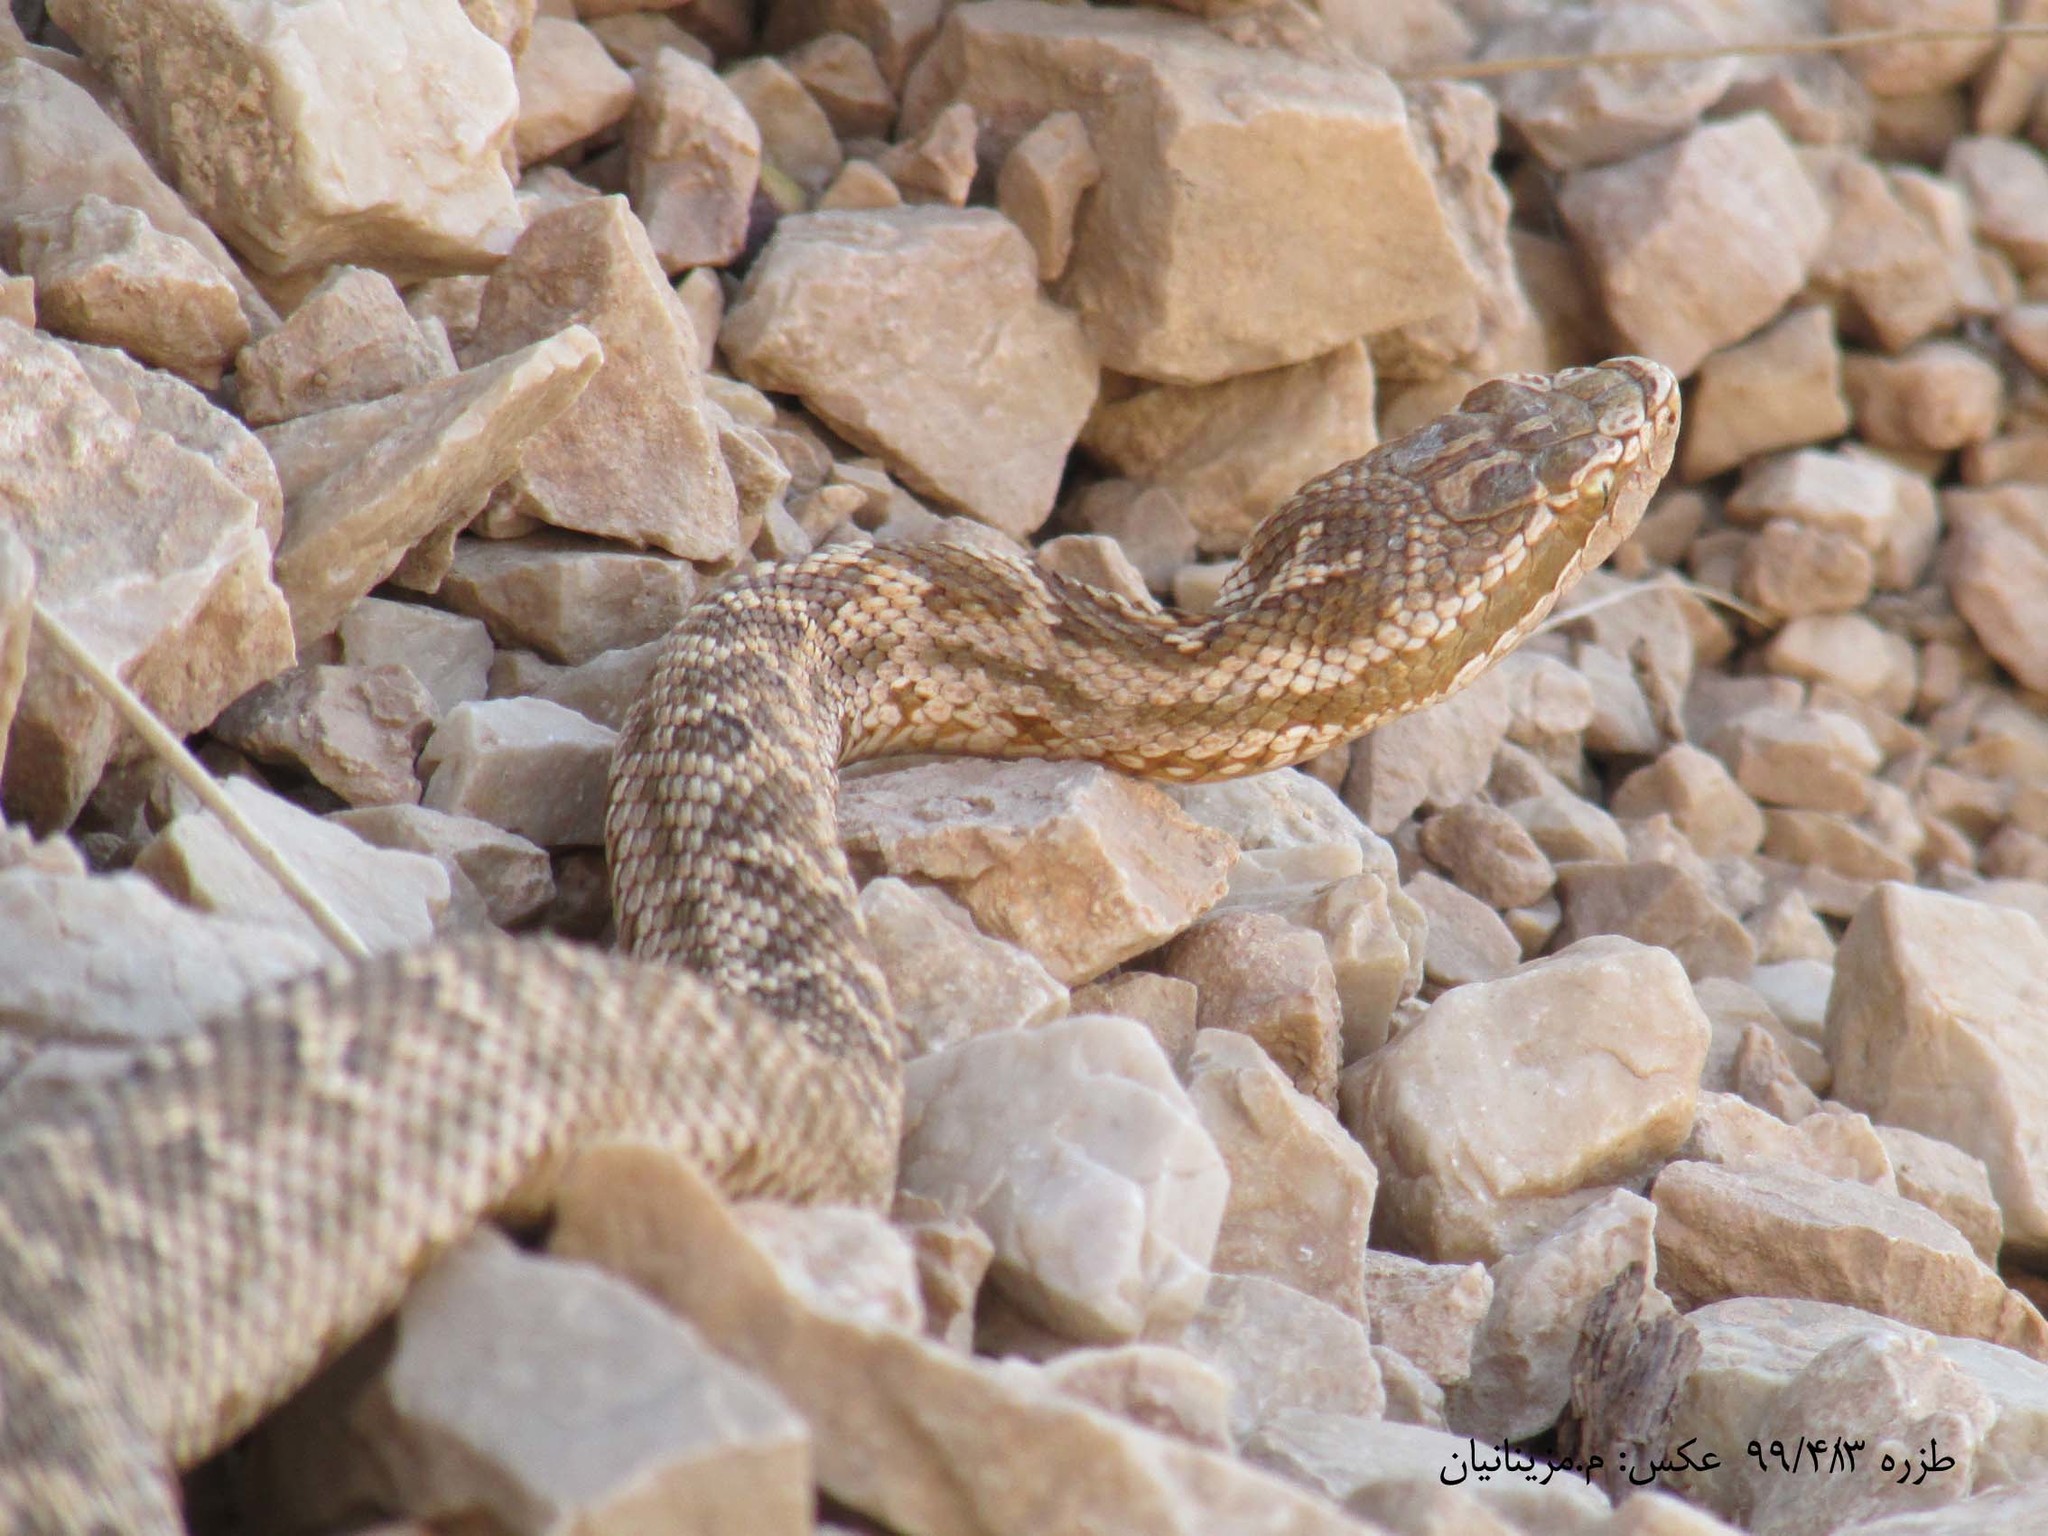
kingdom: Animalia
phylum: Chordata
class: Squamata
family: Viperidae
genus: Gloydius
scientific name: Gloydius caucasicus
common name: Caucasian pitviper
